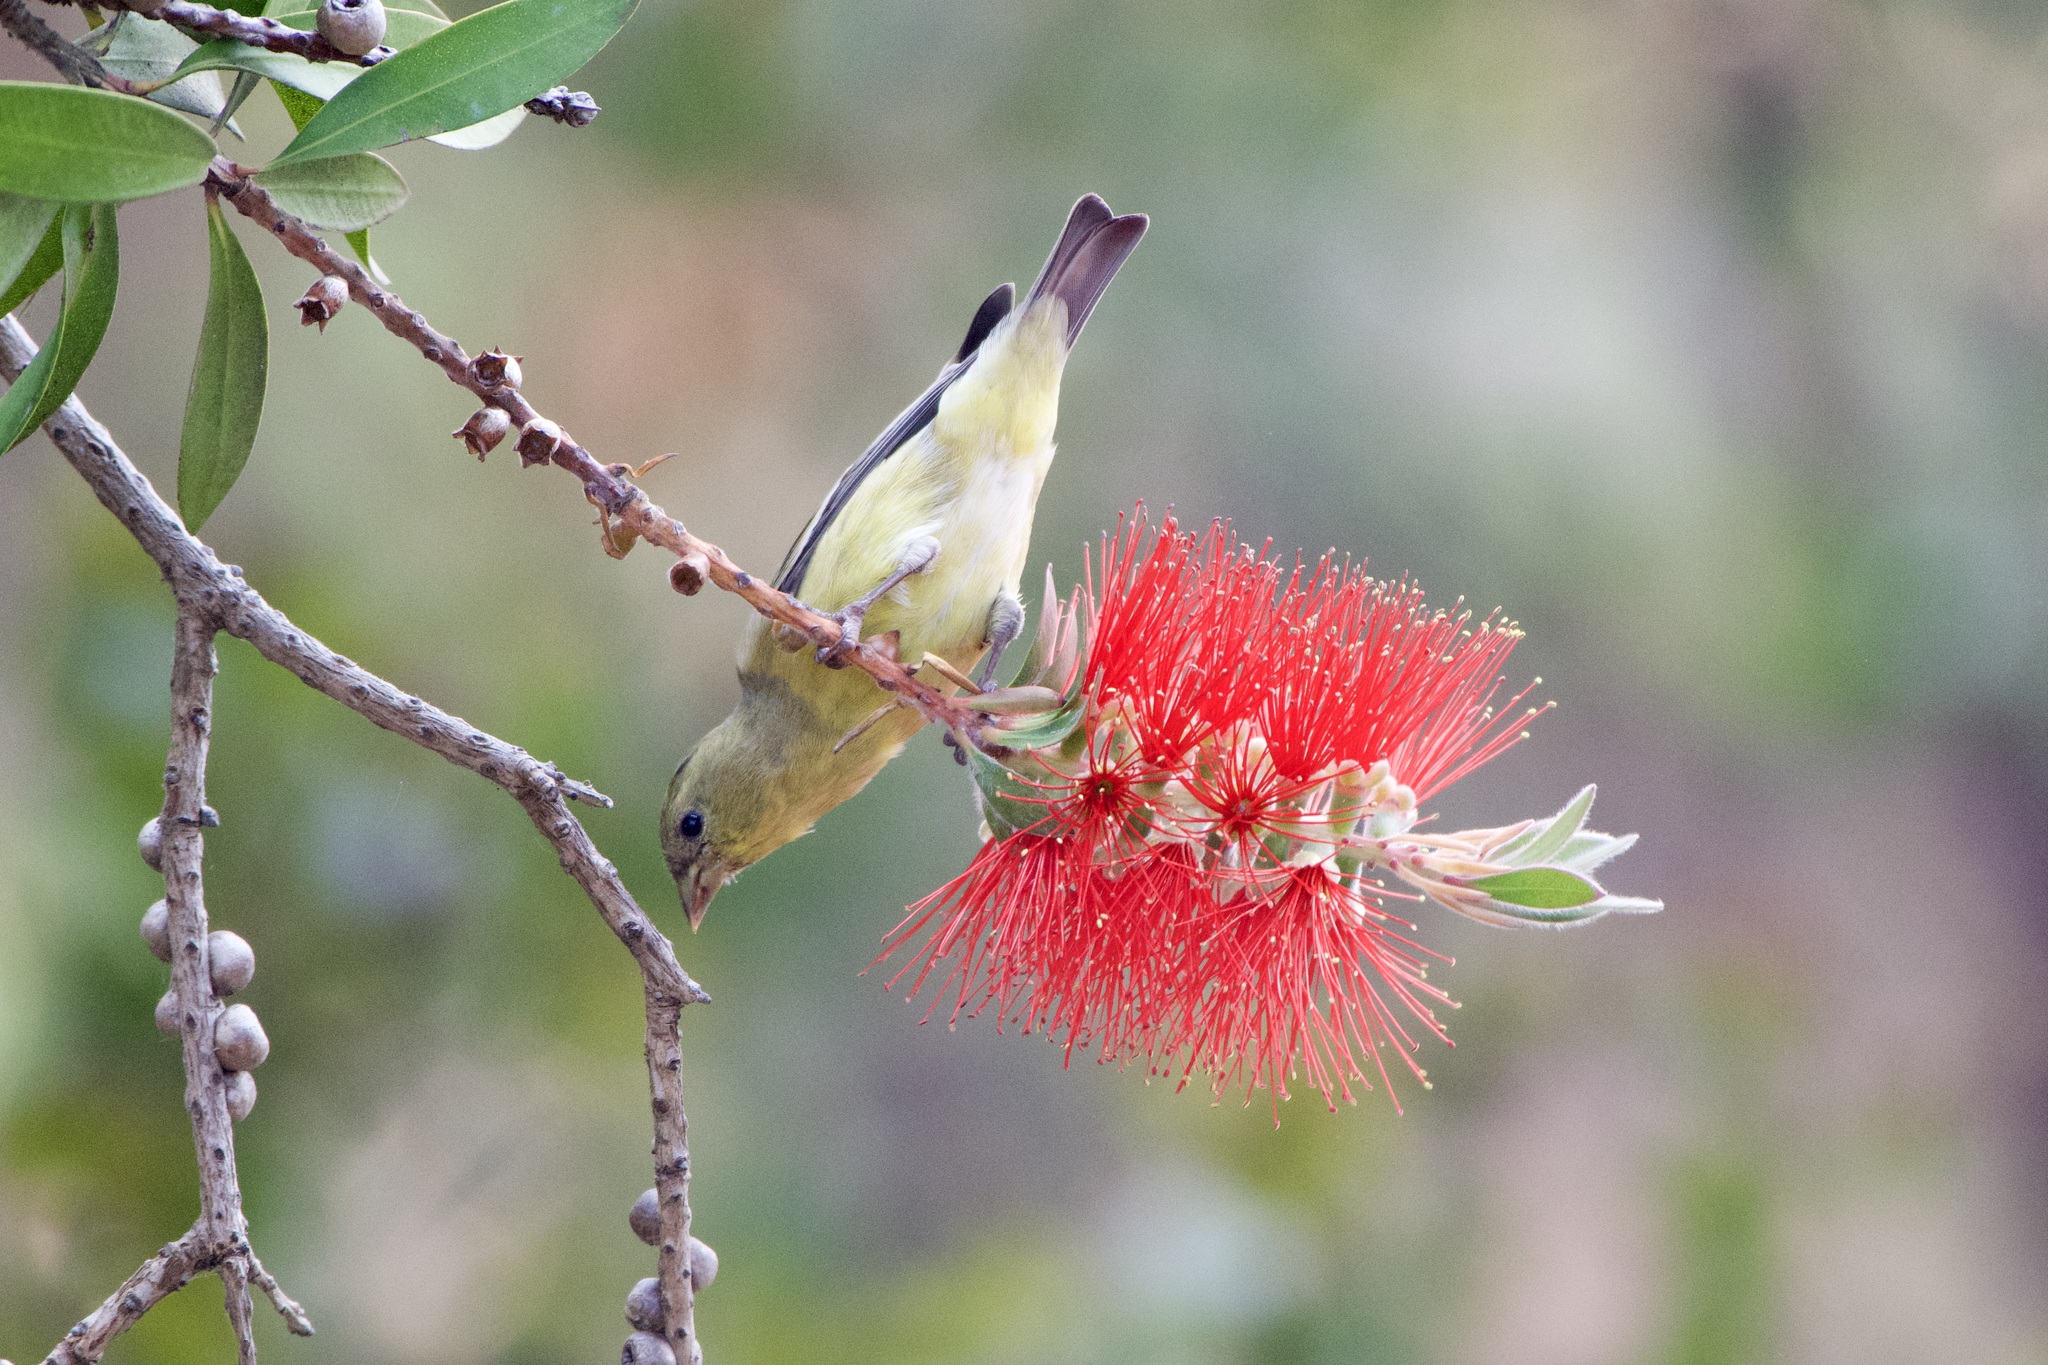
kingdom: Animalia
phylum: Chordata
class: Aves
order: Passeriformes
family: Fringillidae
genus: Spinus
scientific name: Spinus psaltria
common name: Lesser goldfinch
